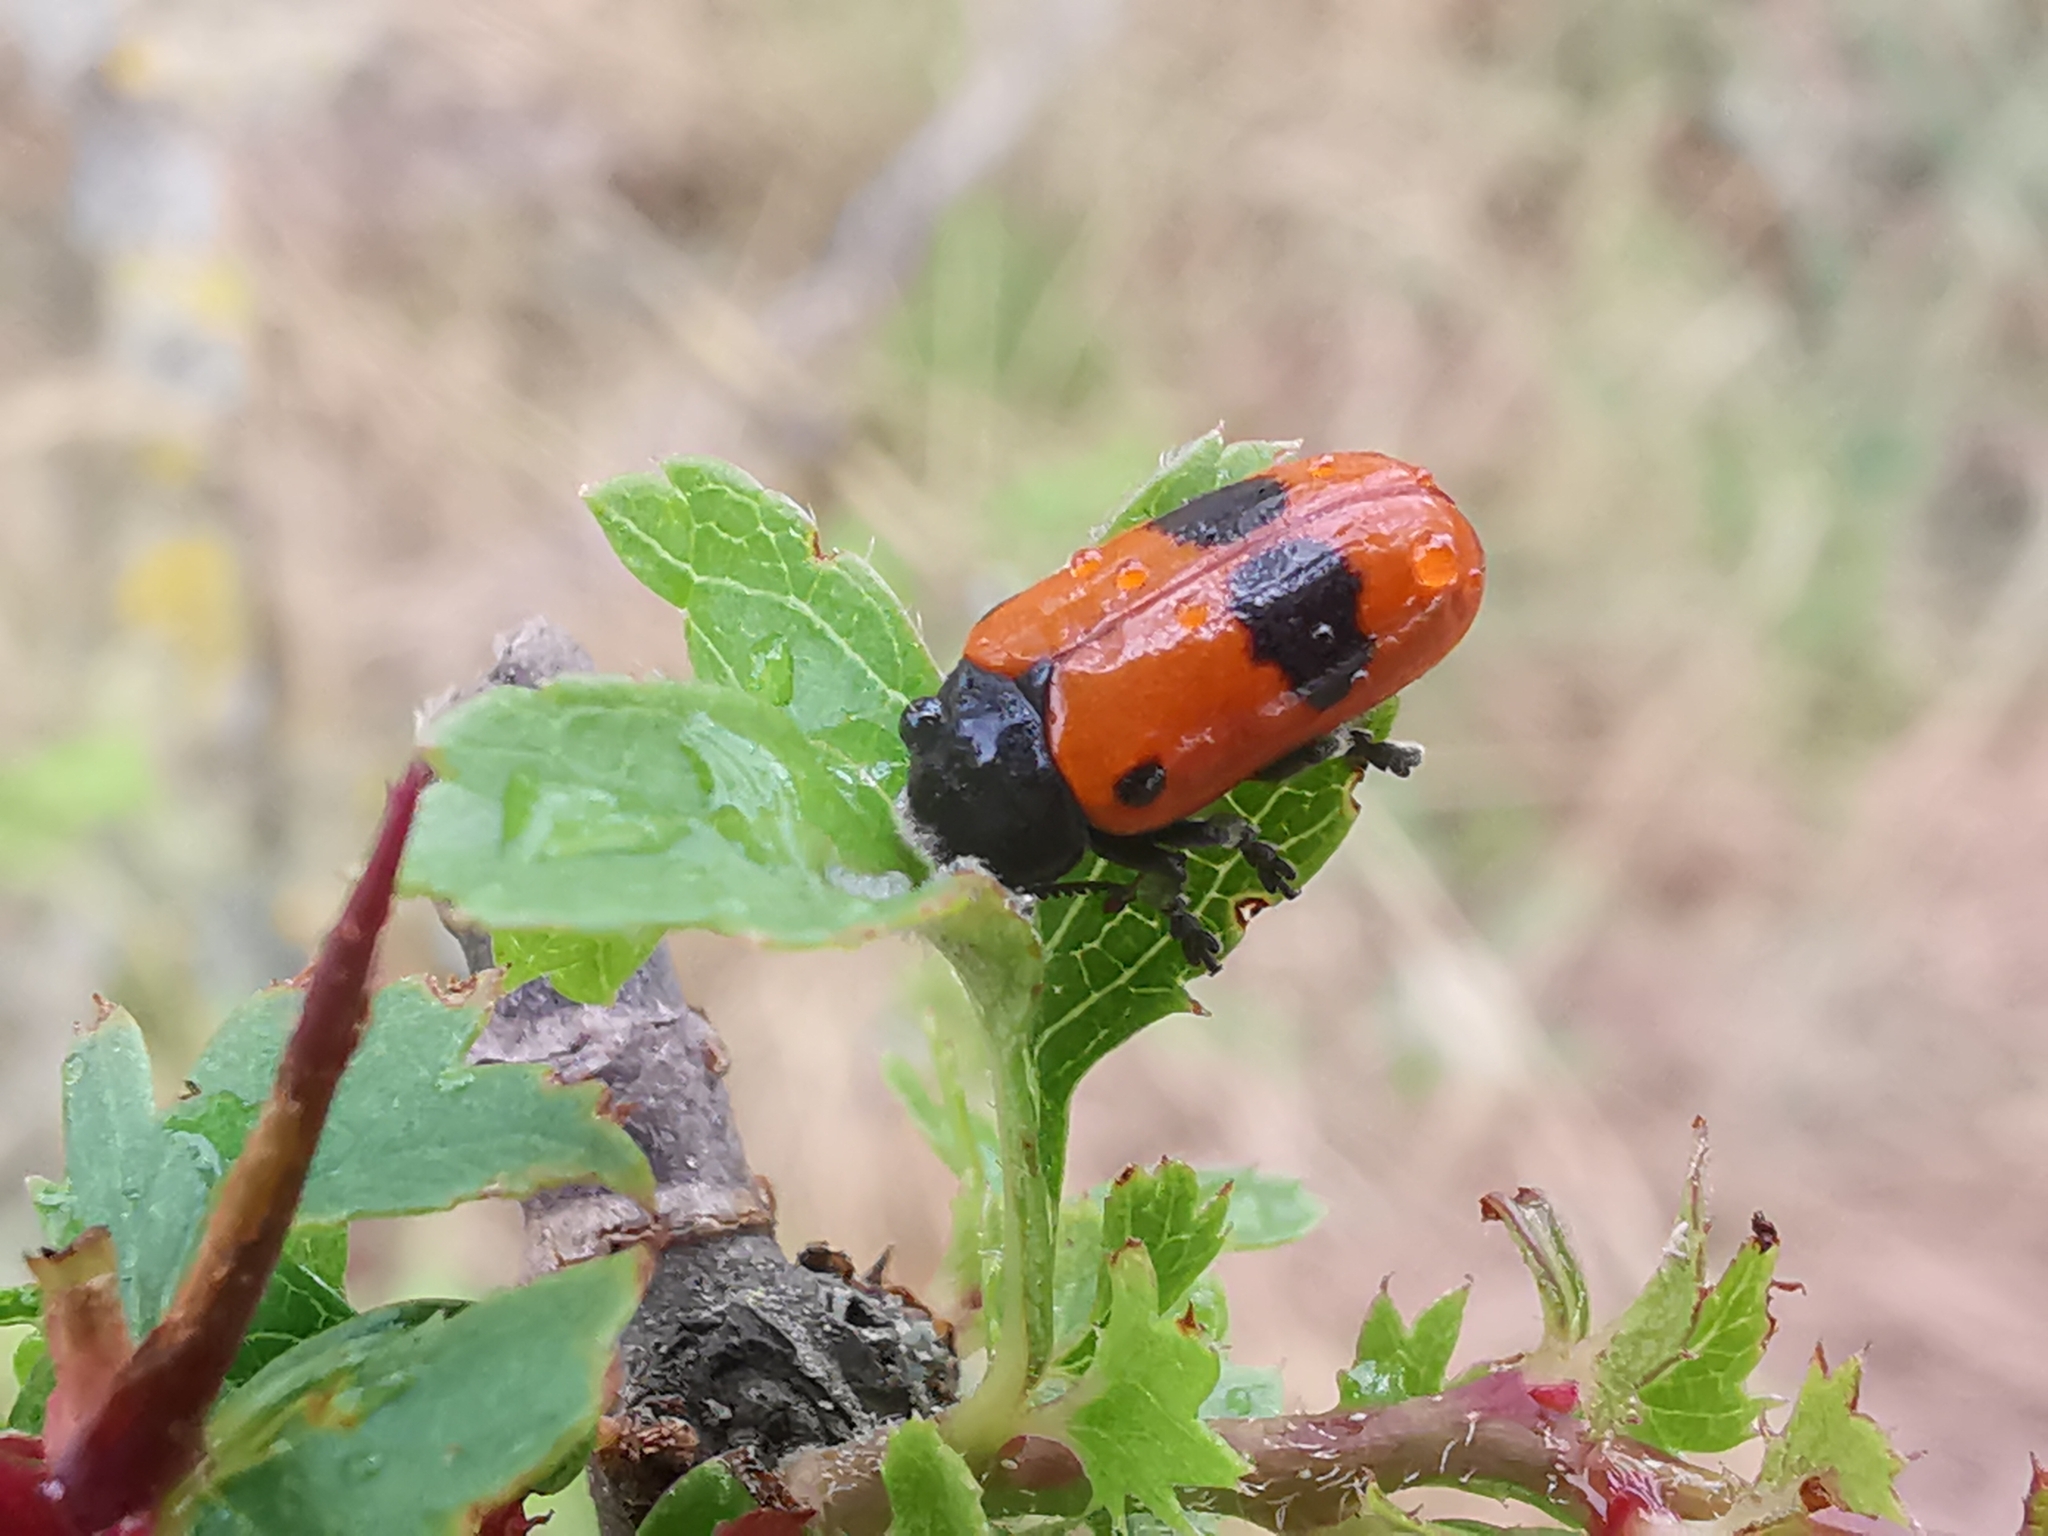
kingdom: Animalia
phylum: Arthropoda
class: Insecta
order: Coleoptera
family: Chrysomelidae
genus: Clytra
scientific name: Clytra laeviuscula
